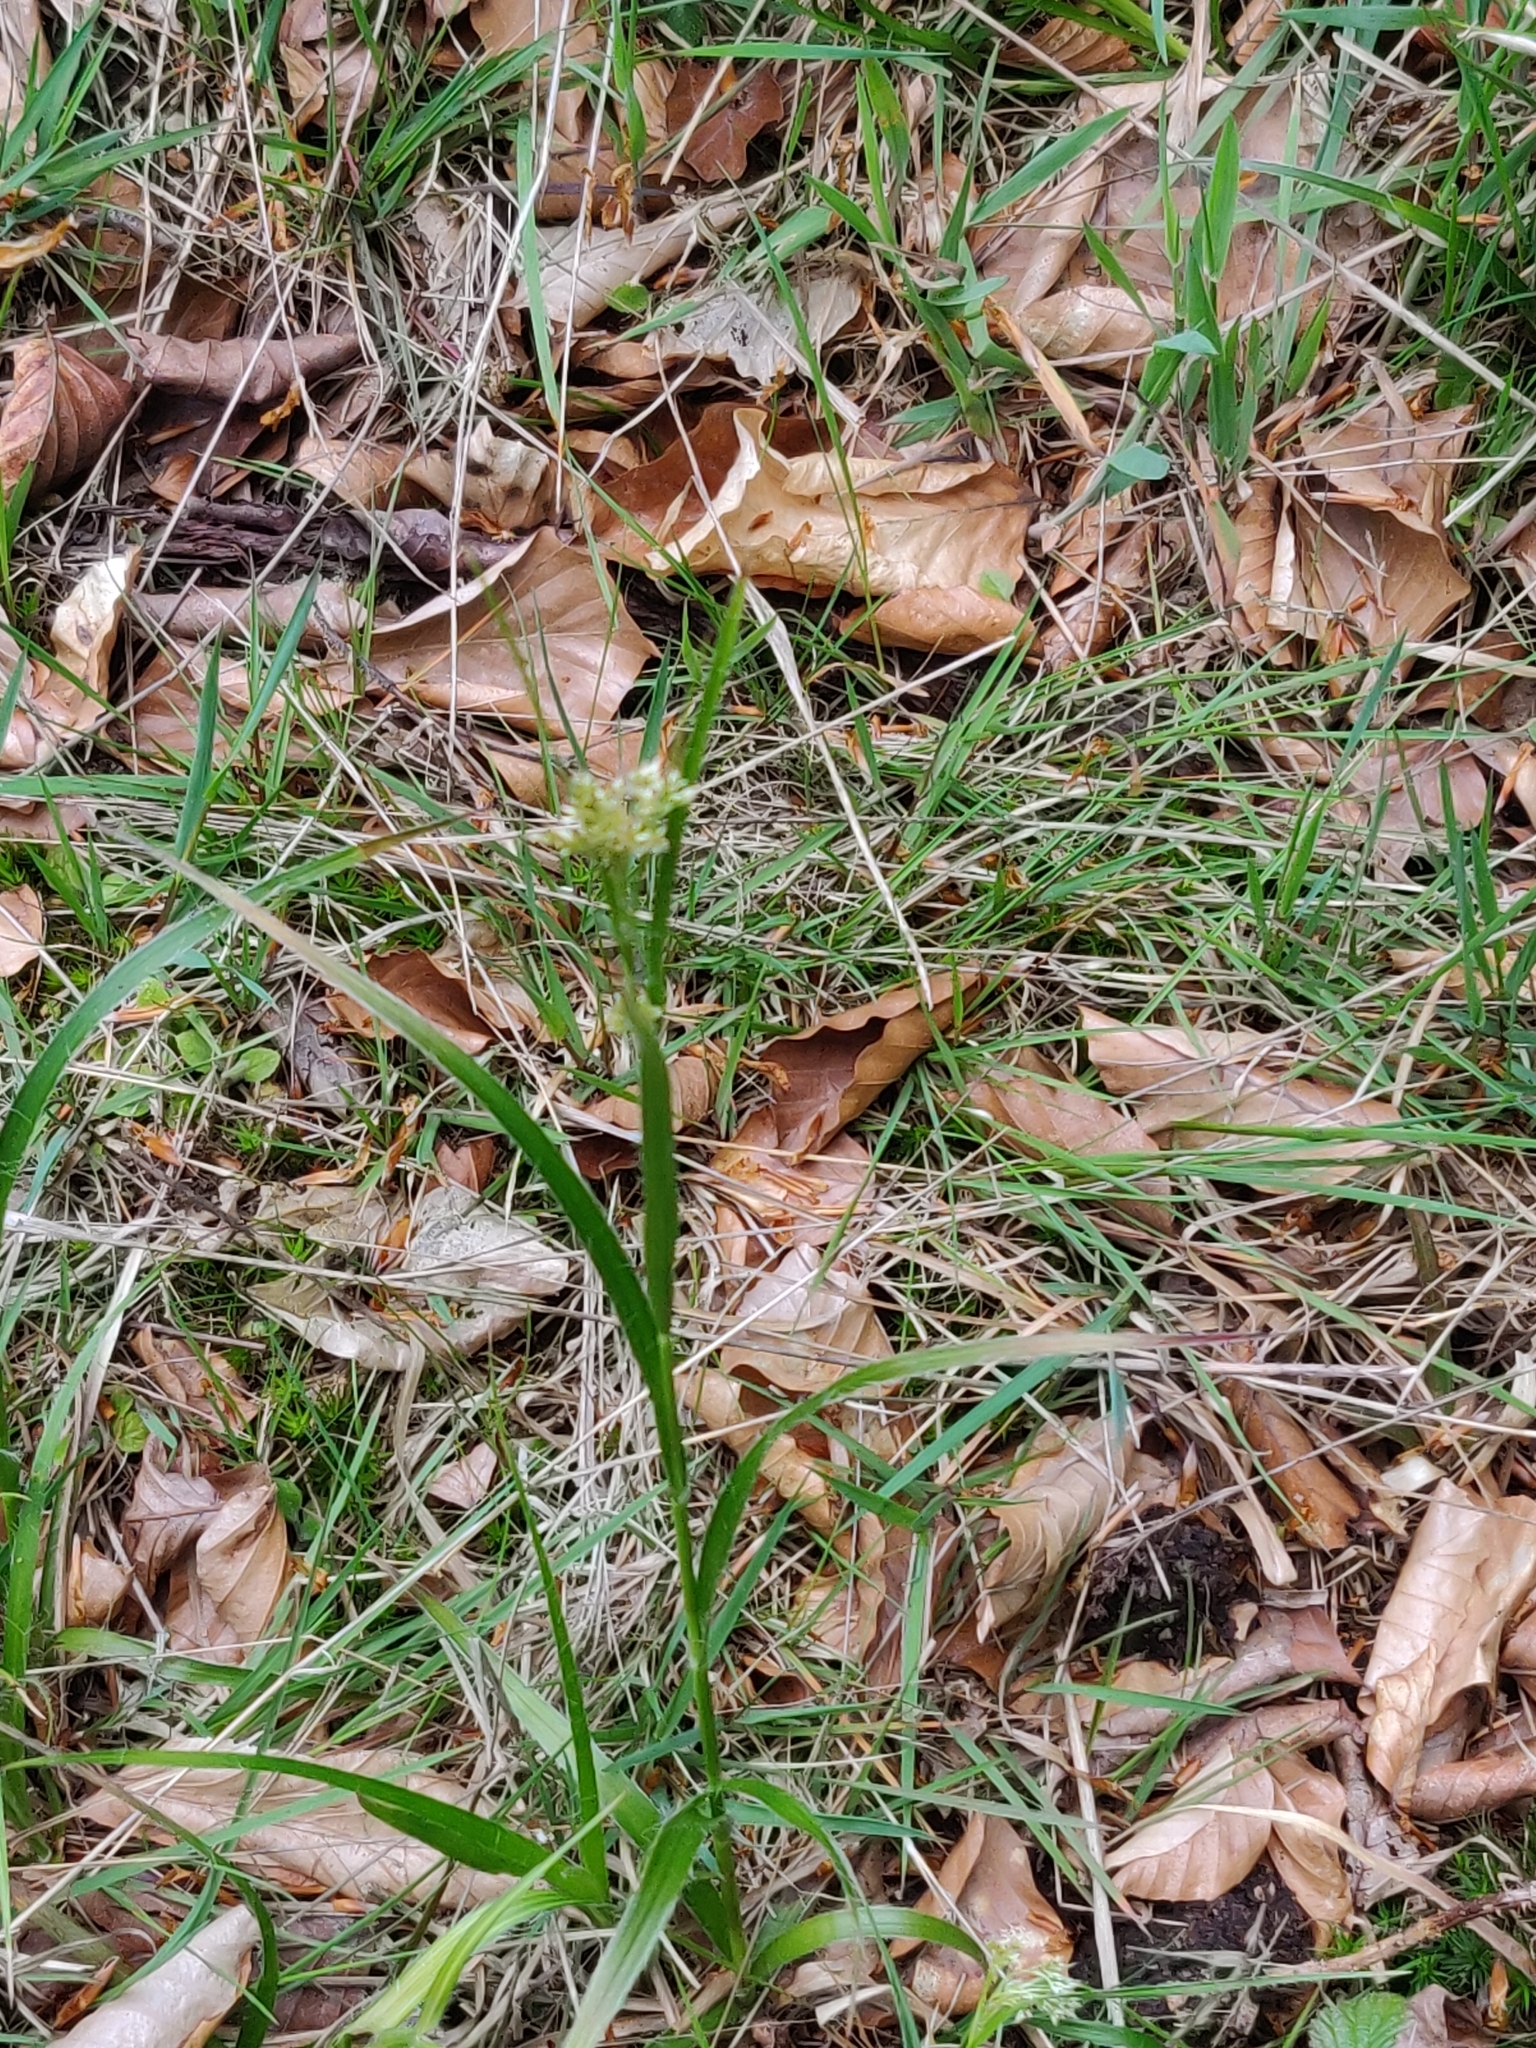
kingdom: Plantae
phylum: Tracheophyta
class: Liliopsida
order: Poales
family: Juncaceae
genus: Luzula
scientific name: Luzula luzuloides
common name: White wood-rush
